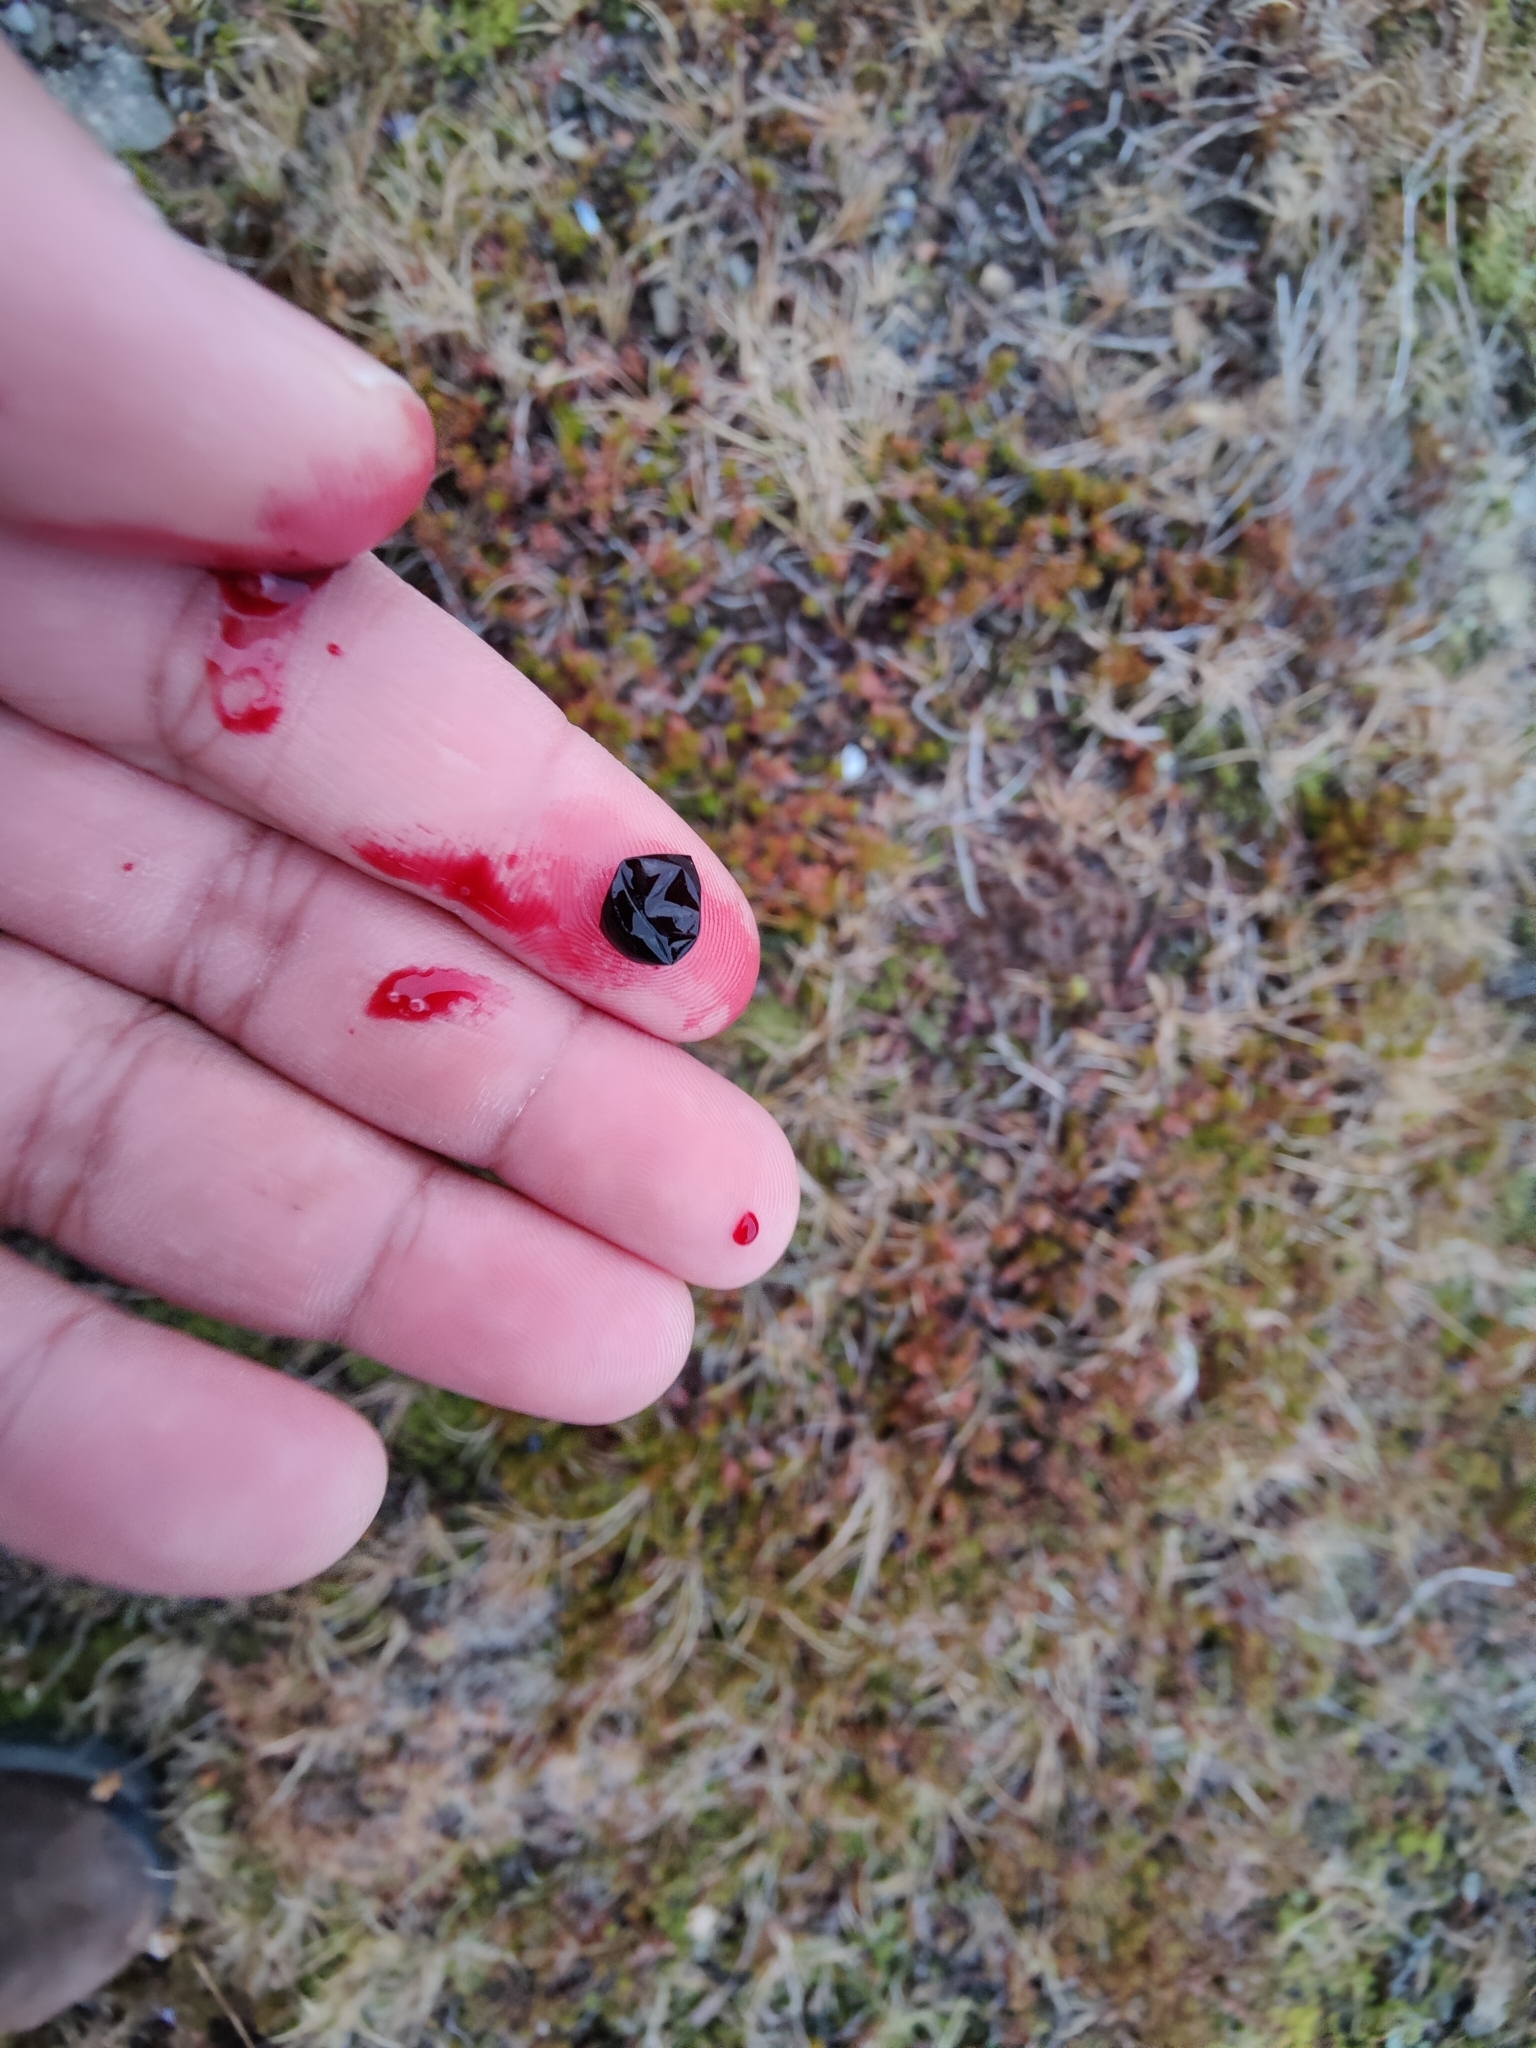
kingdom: Plantae
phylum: Tracheophyta
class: Magnoliopsida
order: Ericales
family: Ericaceae
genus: Empetrum
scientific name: Empetrum nigrum
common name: Black crowberry
